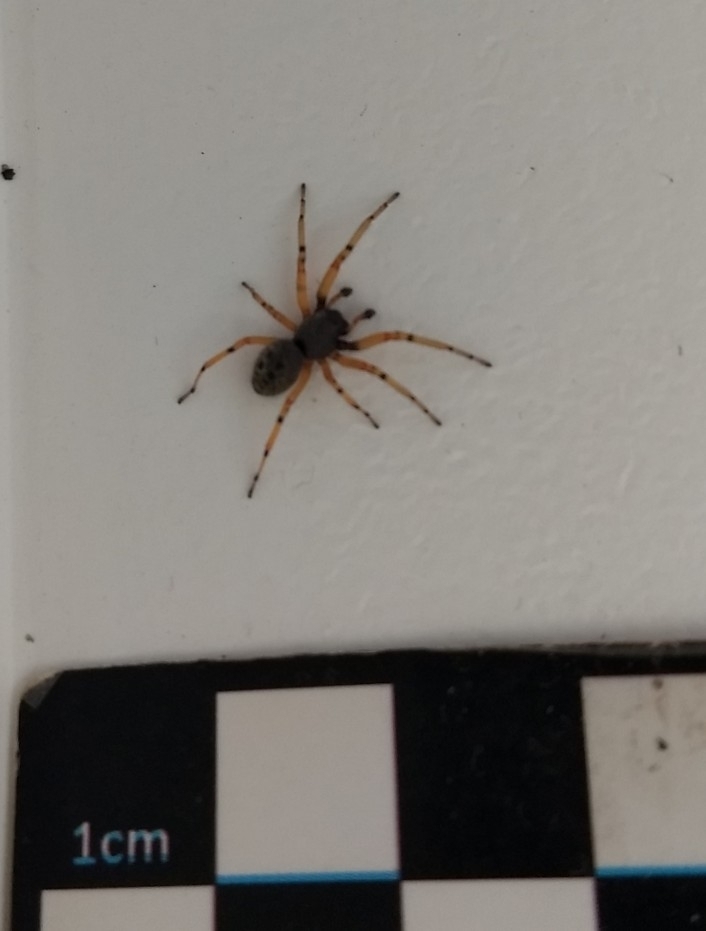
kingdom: Animalia
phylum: Arthropoda
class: Arachnida
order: Araneae
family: Trachelidae
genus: Trachelopachys
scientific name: Trachelopachys
